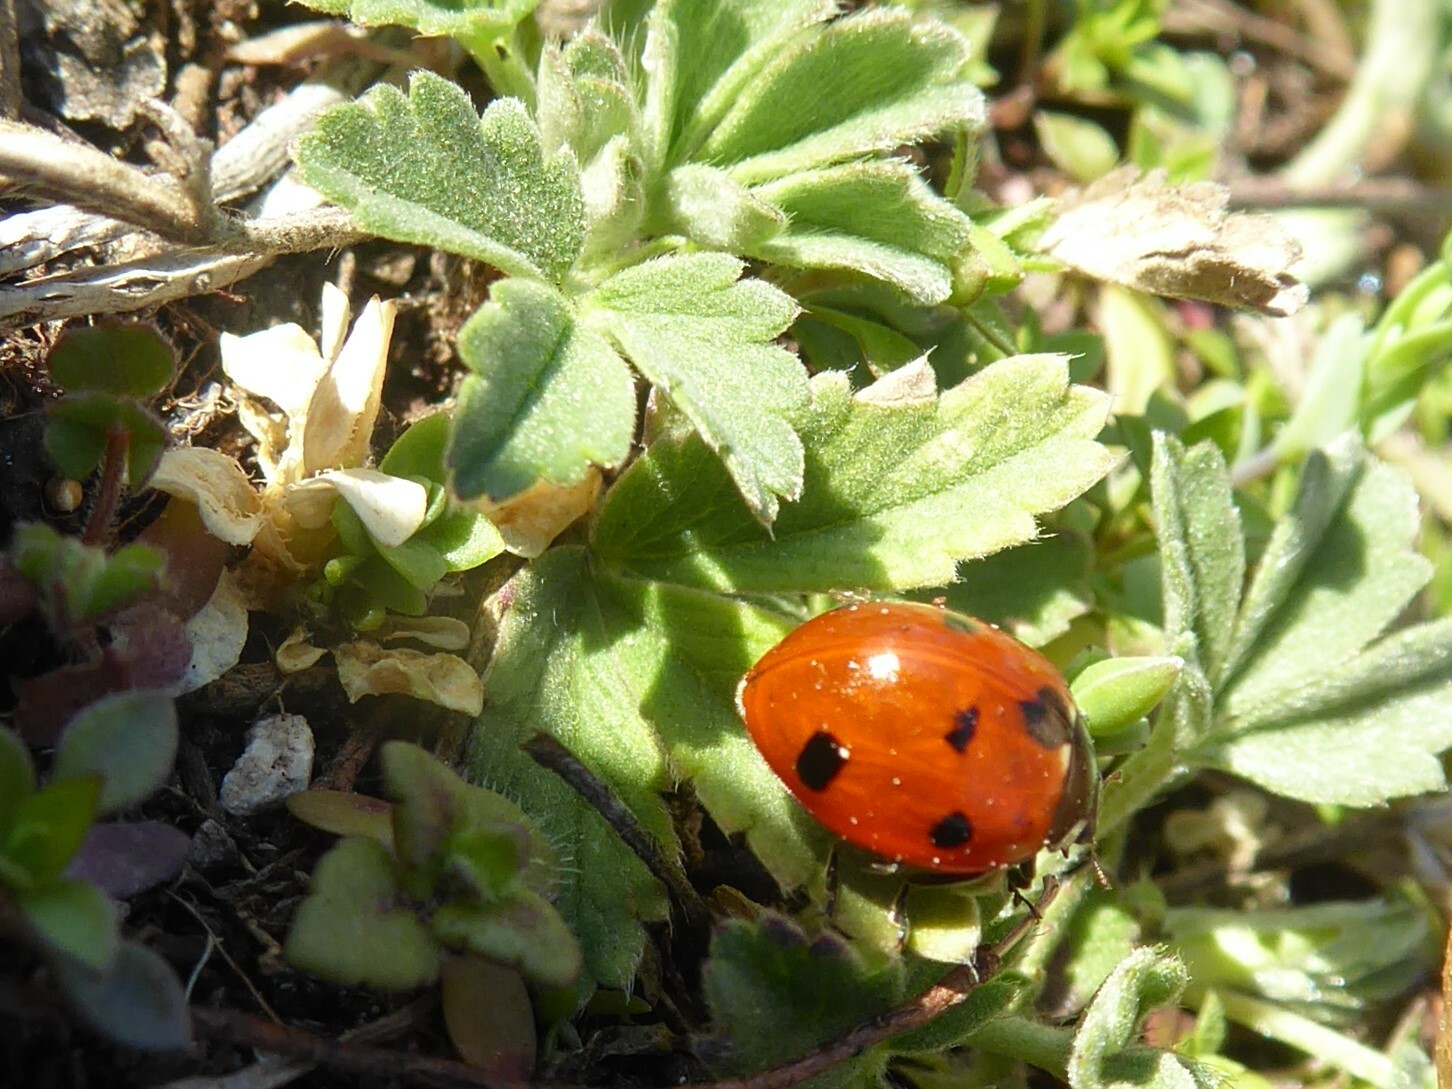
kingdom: Animalia
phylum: Arthropoda
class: Insecta
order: Coleoptera
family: Coccinellidae
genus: Coccinella
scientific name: Coccinella septempunctata
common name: Sevenspotted lady beetle
